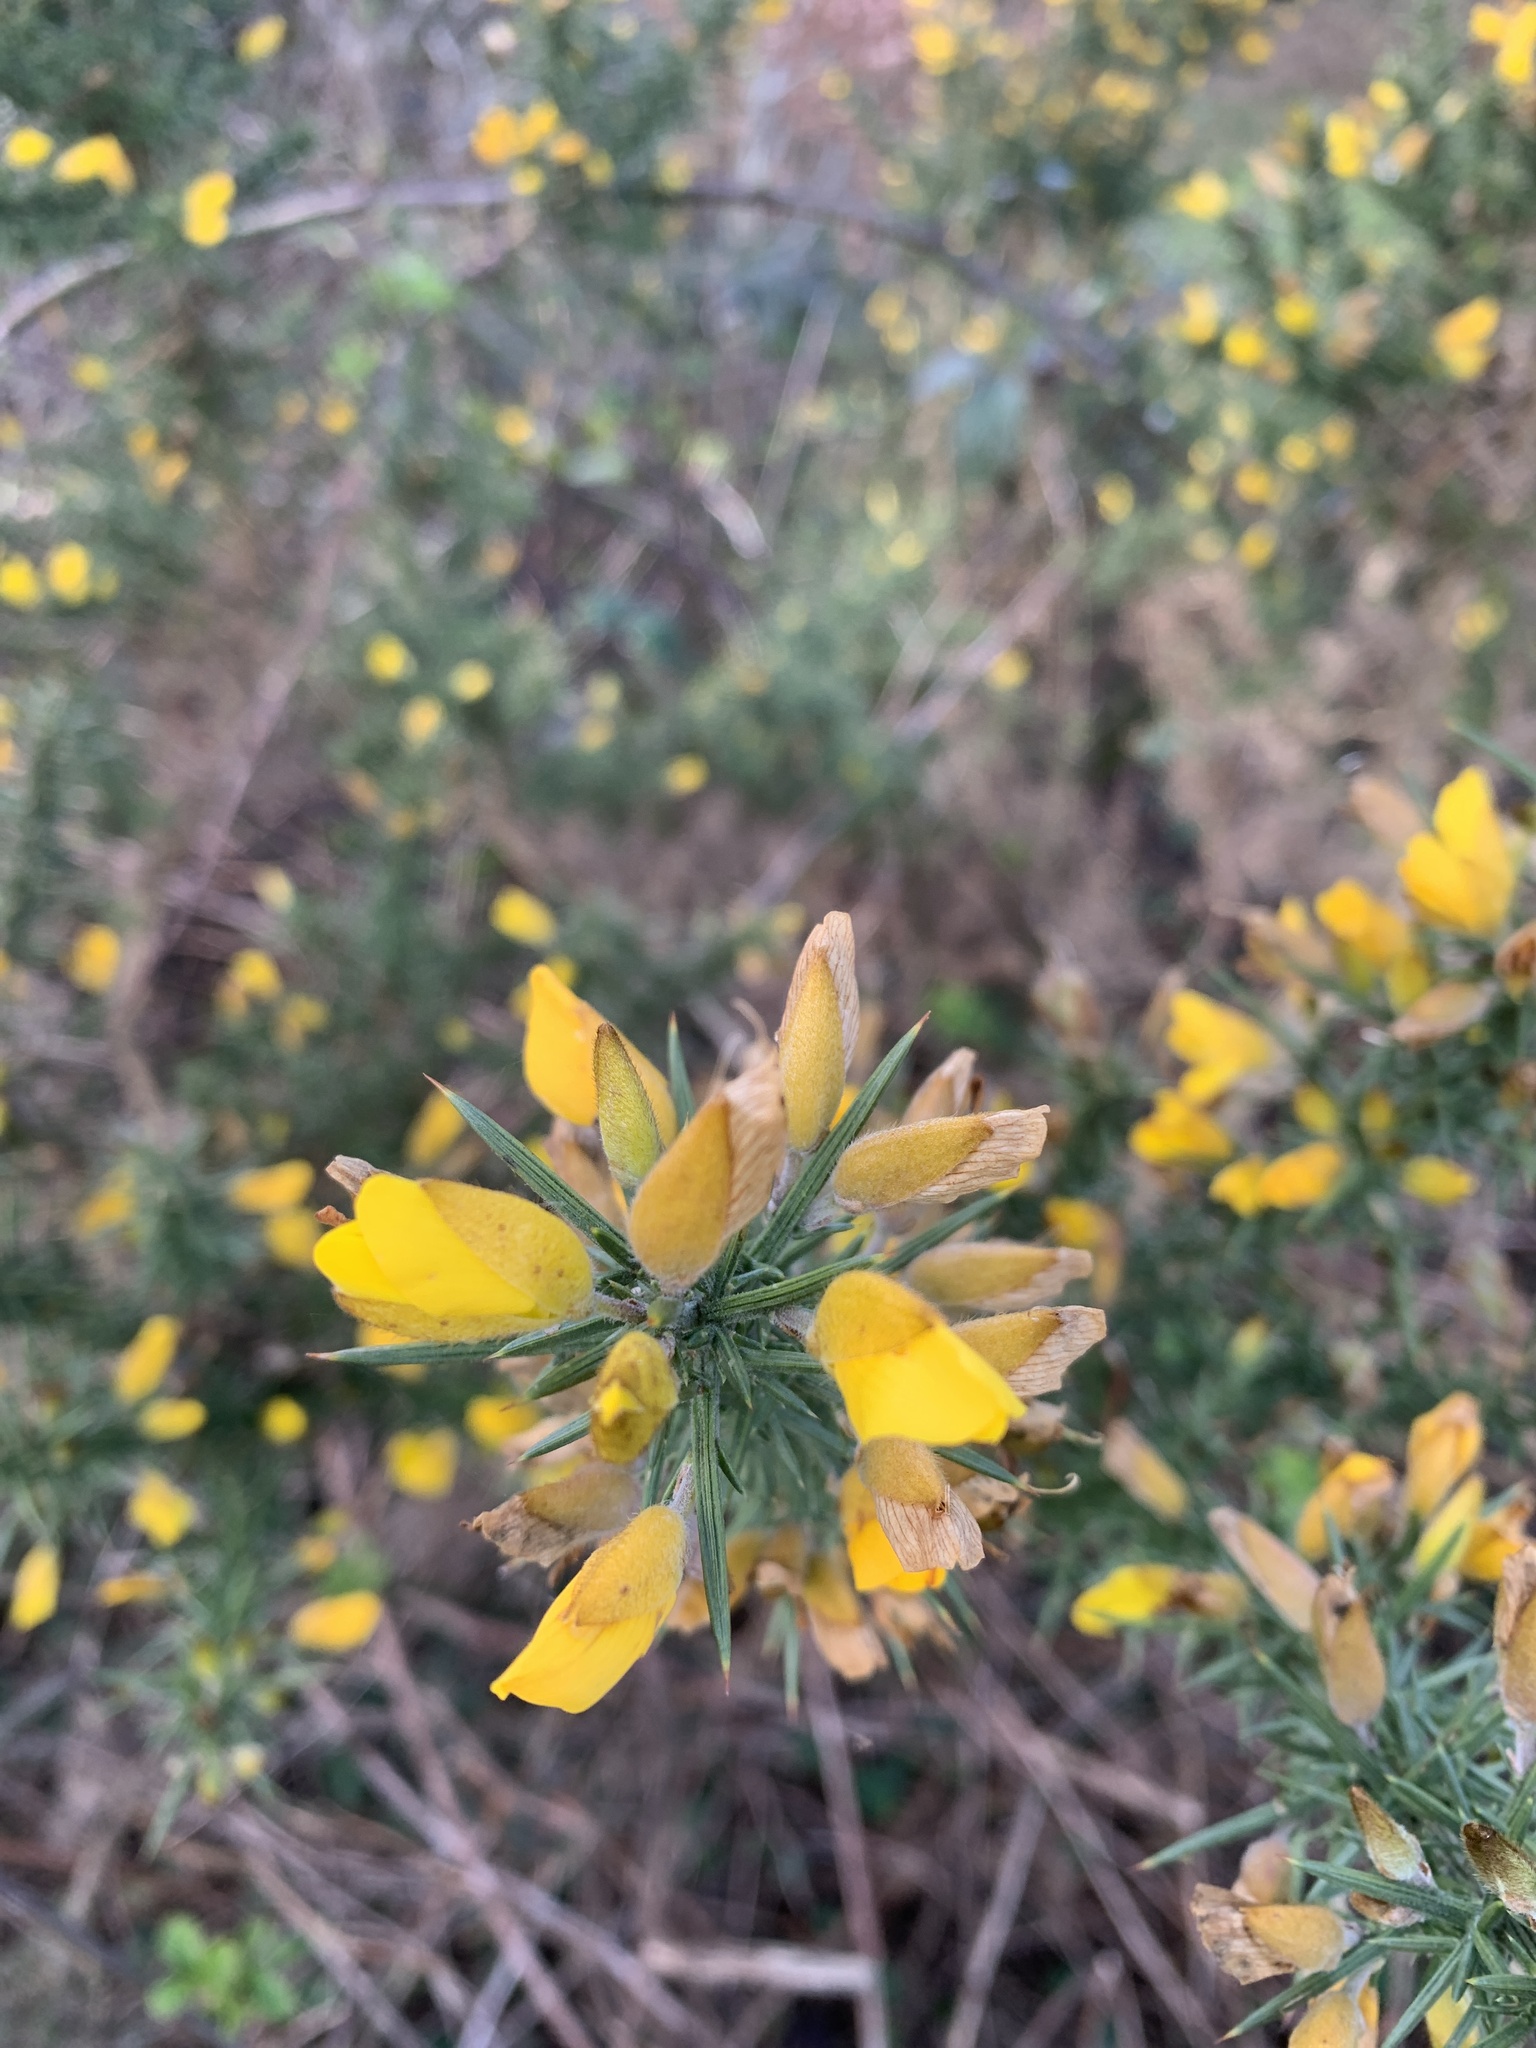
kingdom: Plantae
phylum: Tracheophyta
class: Magnoliopsida
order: Fabales
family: Fabaceae
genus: Ulex
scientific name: Ulex europaeus
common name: Common gorse
